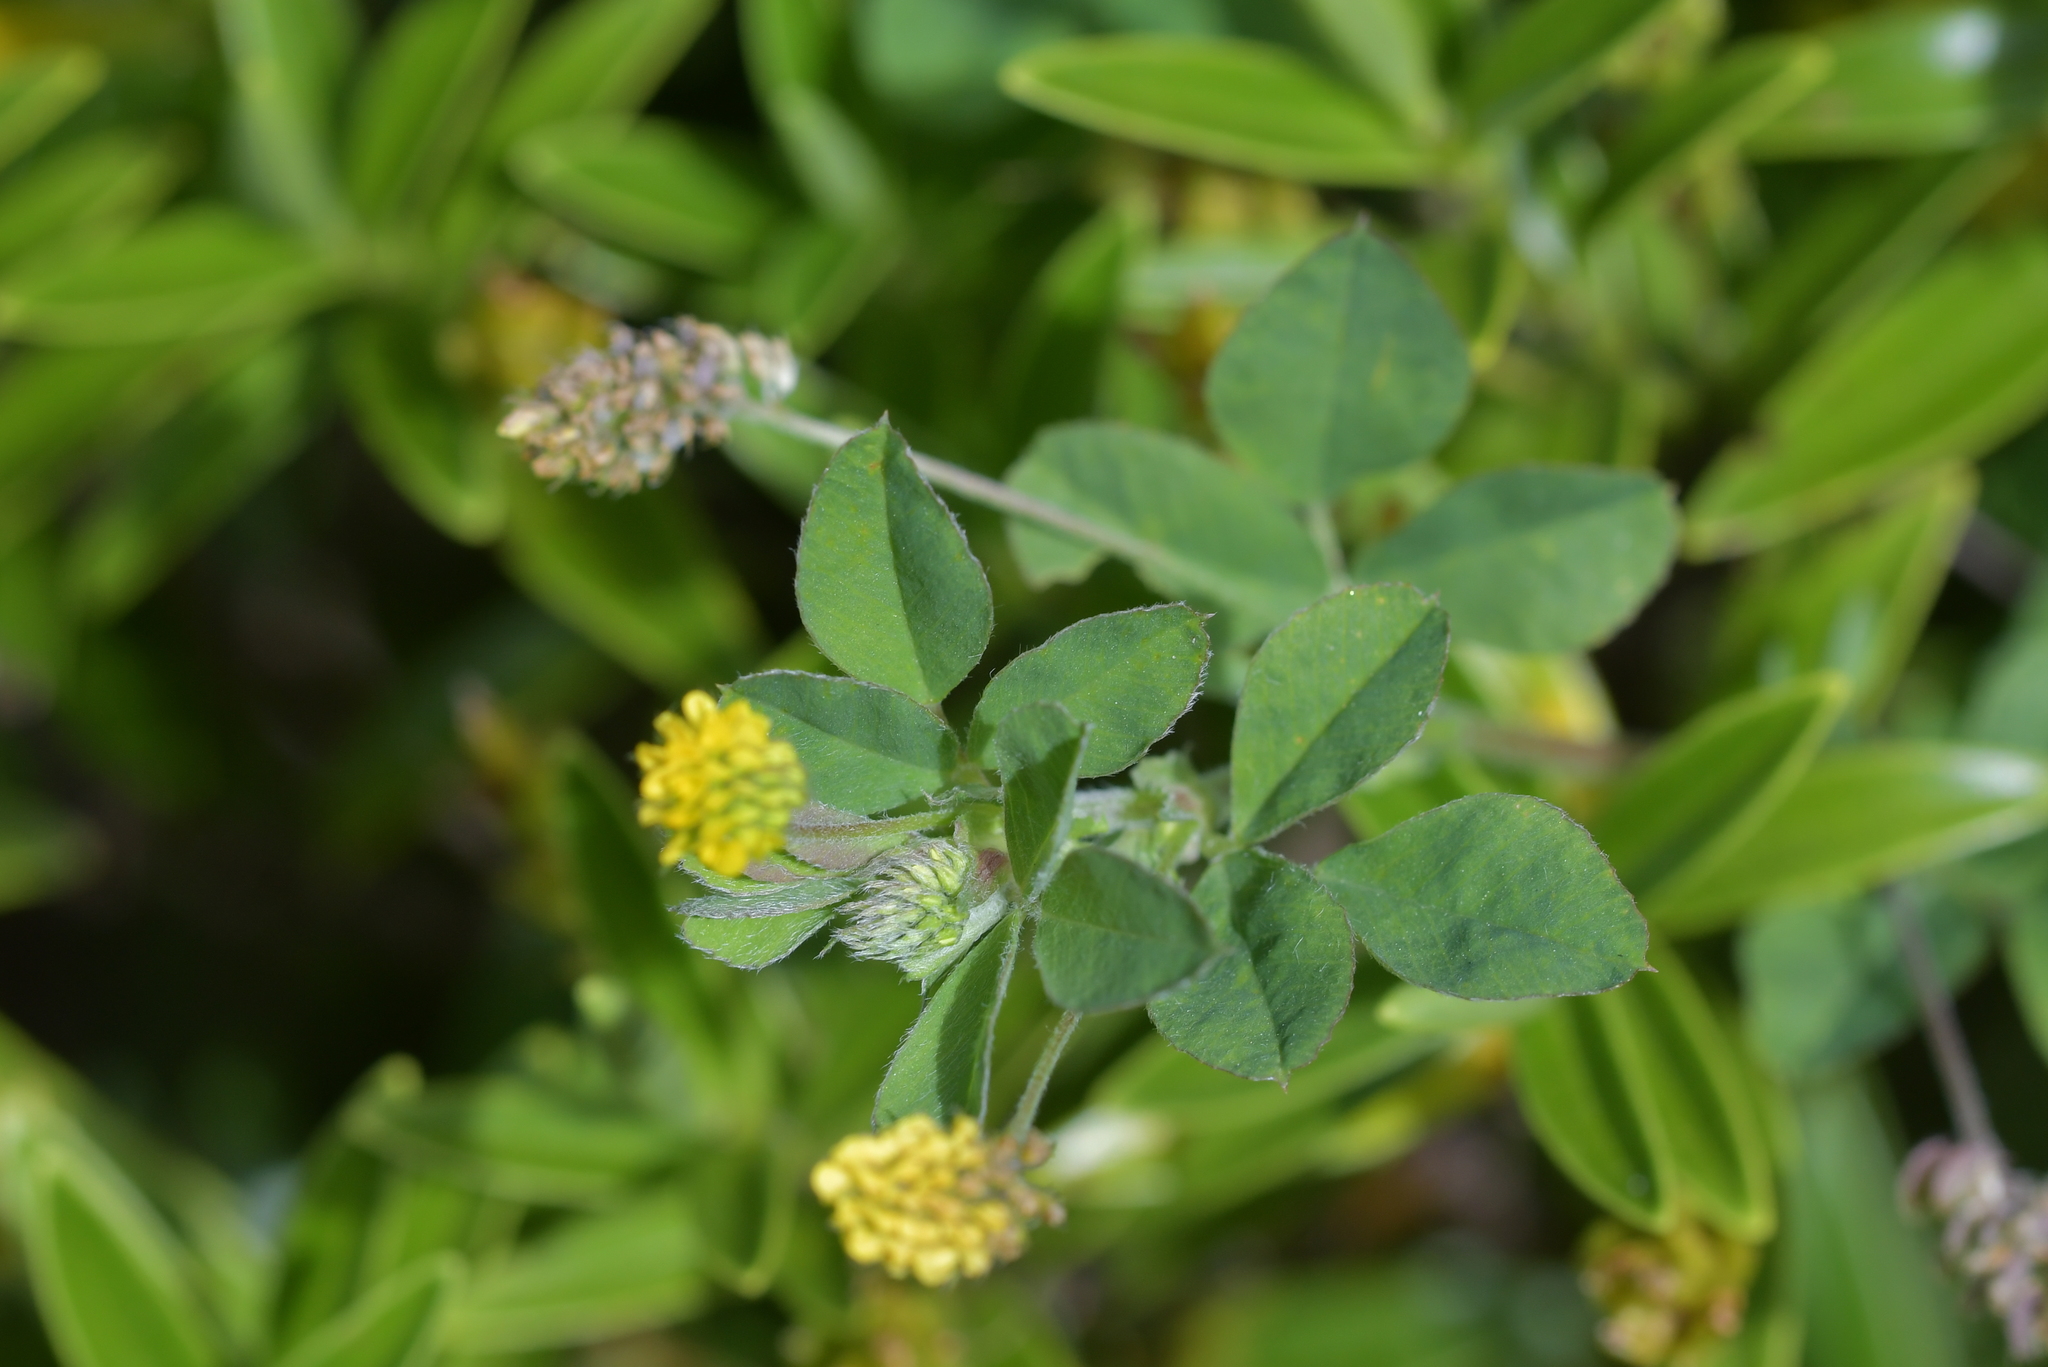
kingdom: Plantae
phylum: Tracheophyta
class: Magnoliopsida
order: Fabales
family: Fabaceae
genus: Medicago
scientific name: Medicago lupulina
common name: Black medick
